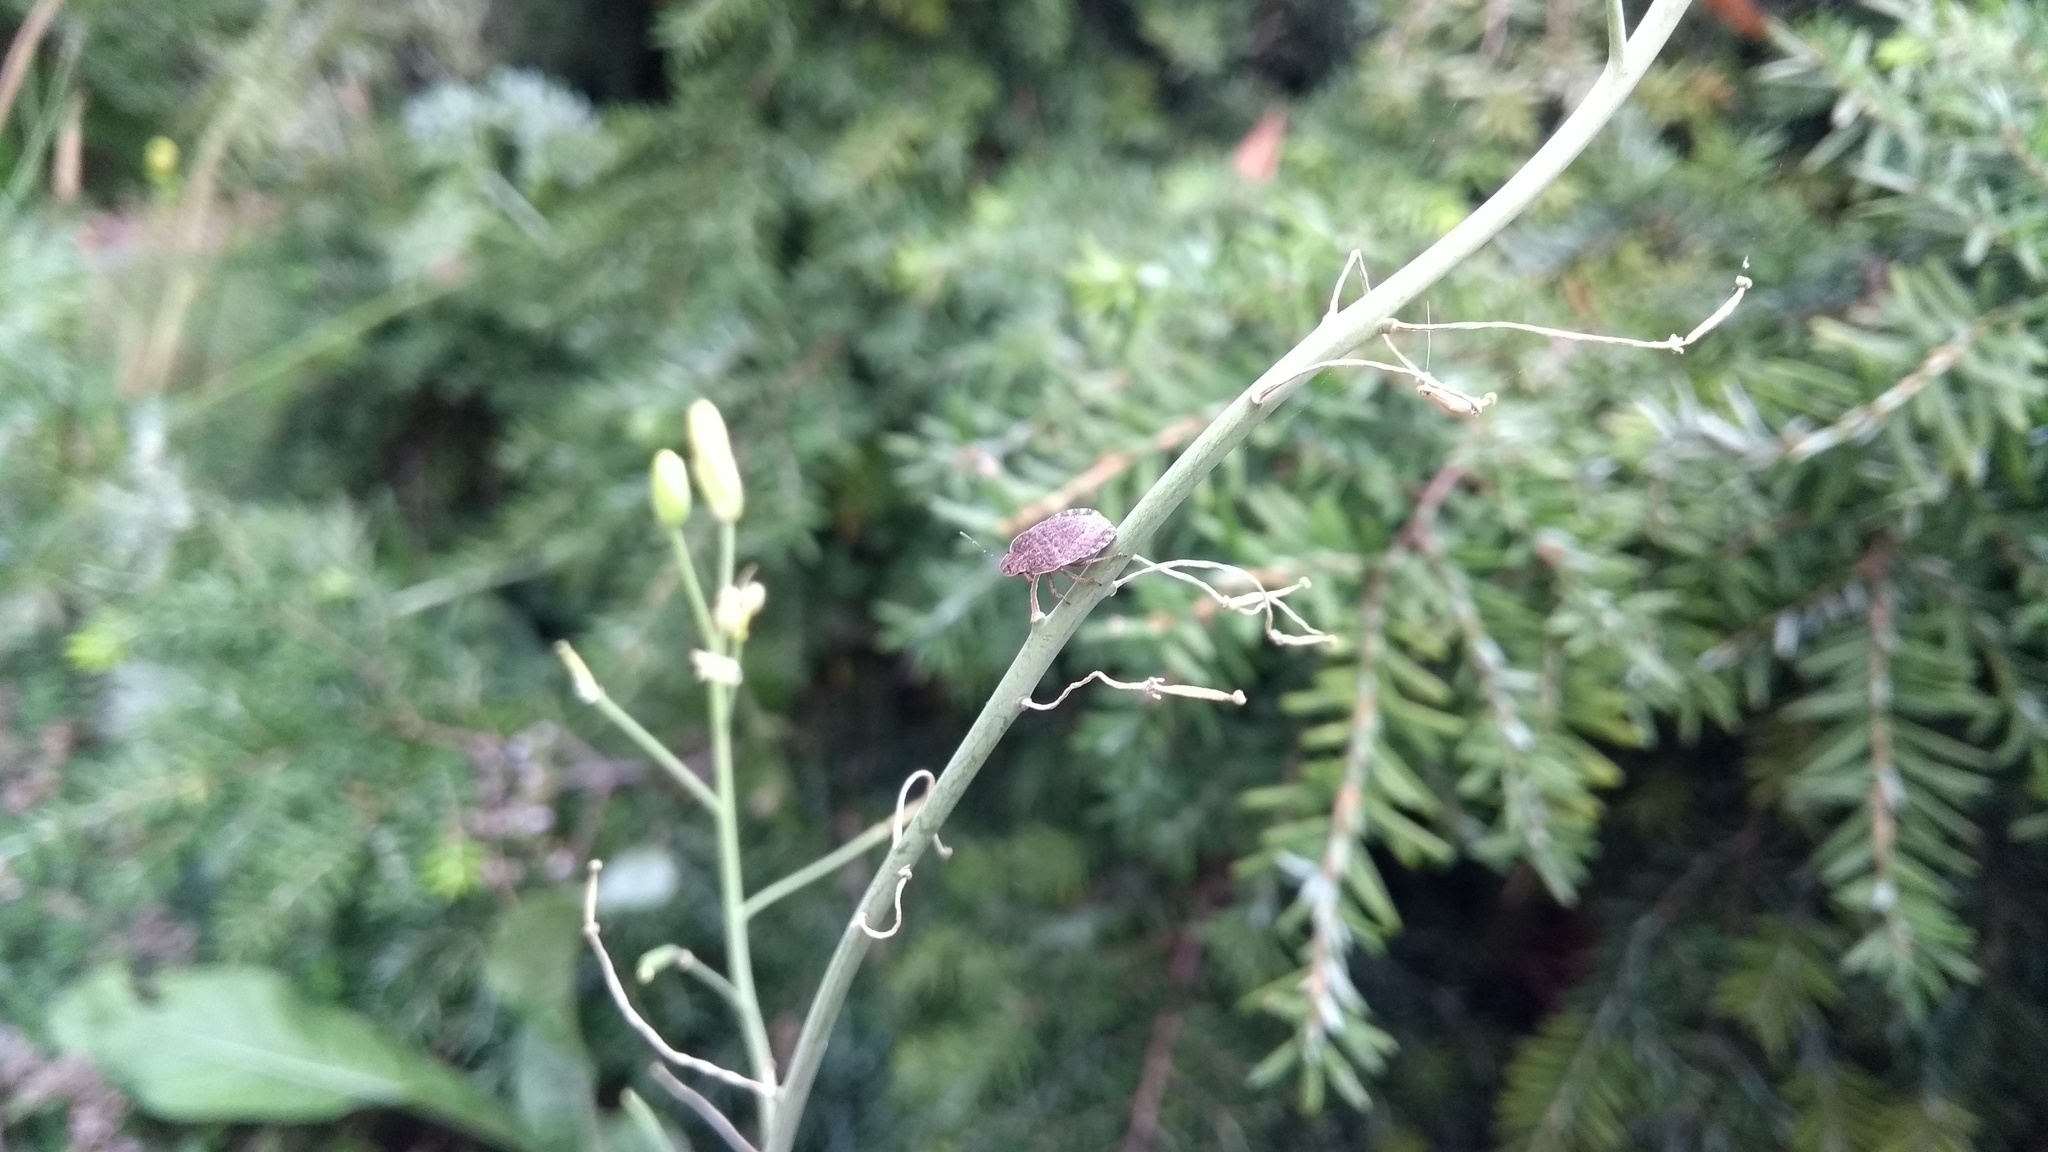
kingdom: Animalia
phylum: Arthropoda
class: Insecta
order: Hemiptera
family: Pentatomidae
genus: Sciocoris
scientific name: Sciocoris homalonotus
